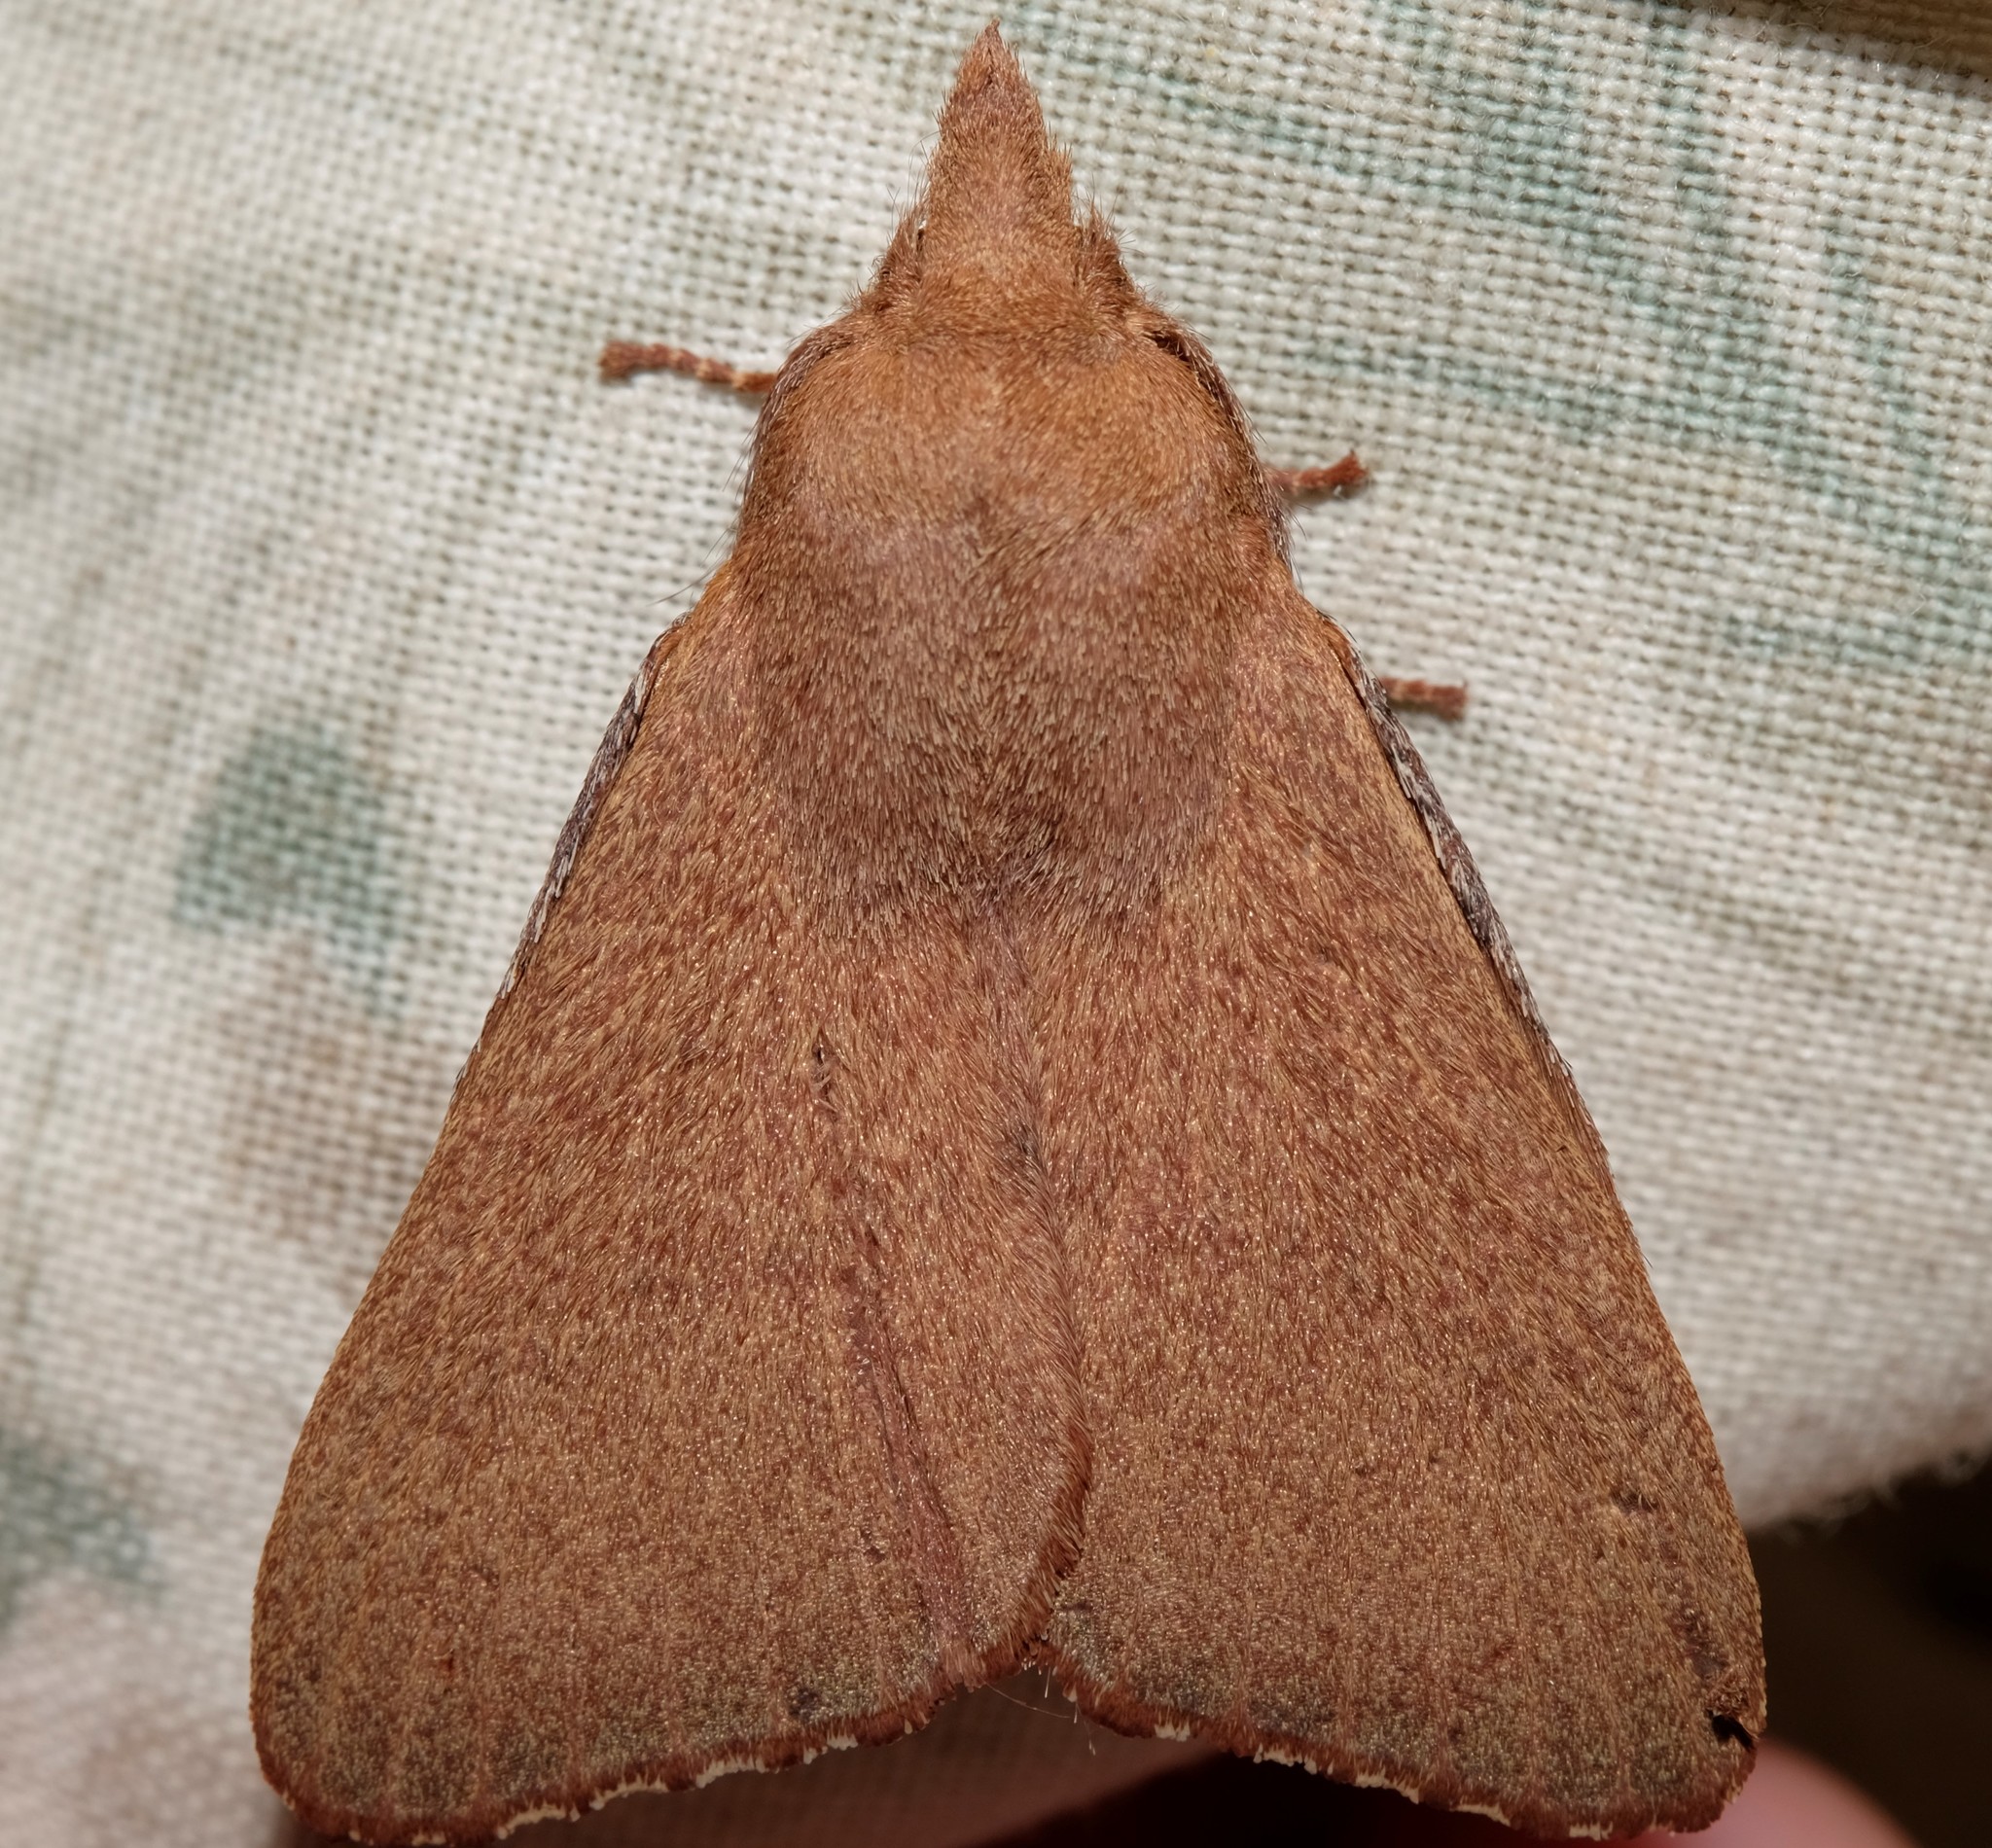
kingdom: Animalia
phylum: Arthropoda
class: Insecta
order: Lepidoptera
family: Lasiocampidae
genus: Pararguda
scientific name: Pararguda
